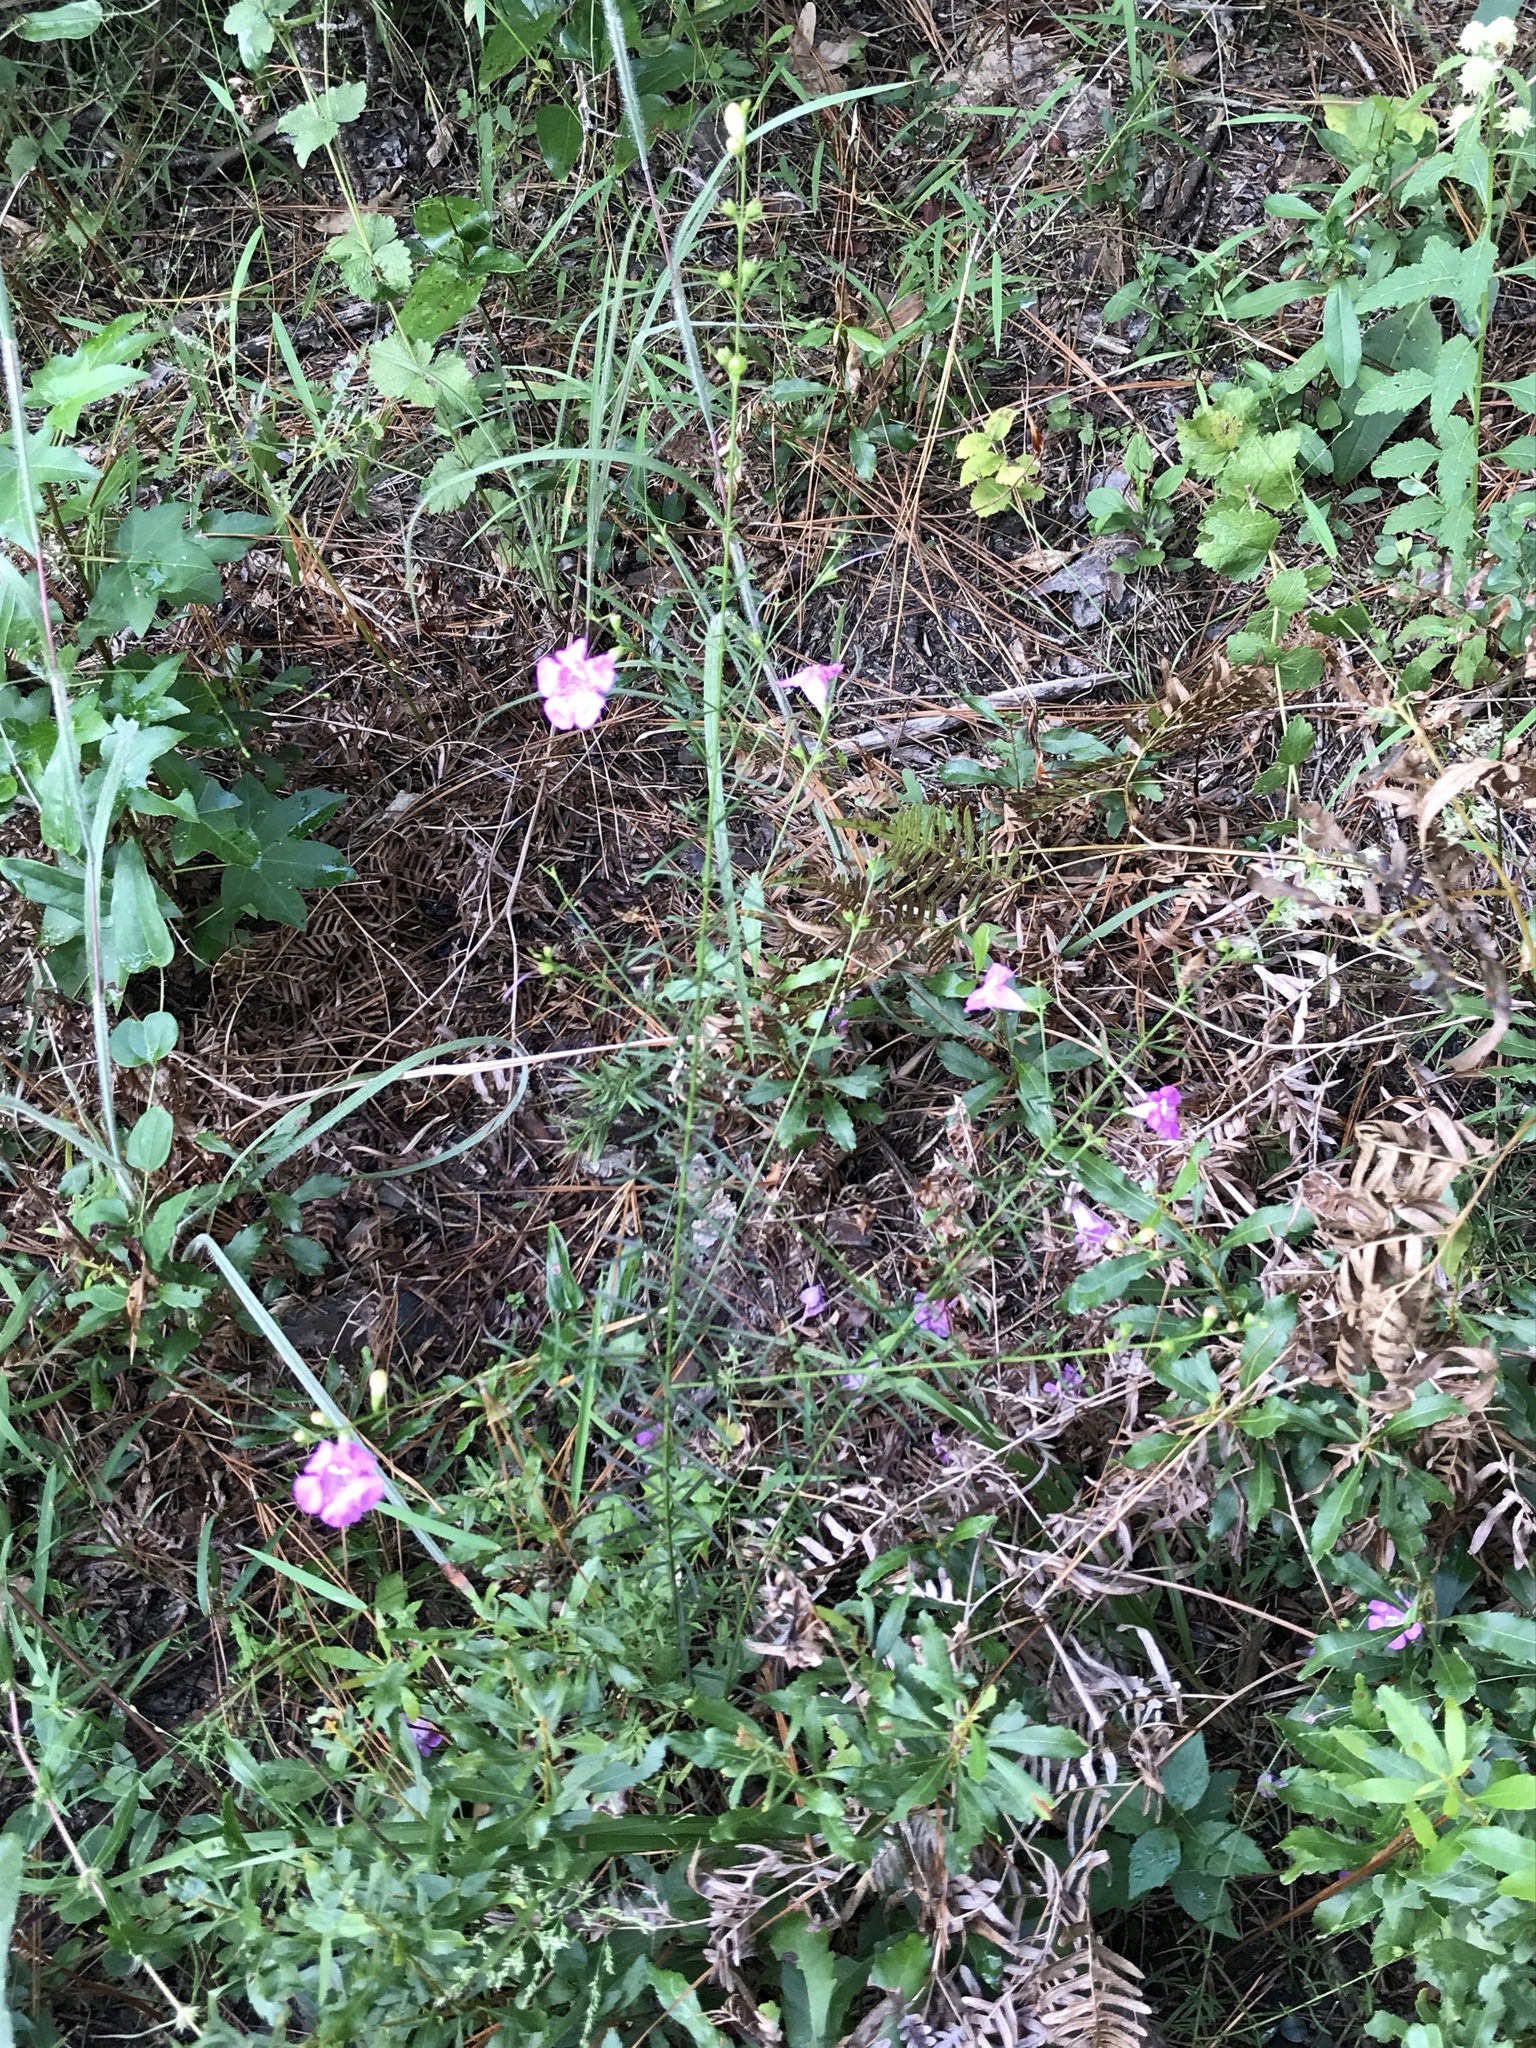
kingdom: Plantae
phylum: Tracheophyta
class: Magnoliopsida
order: Lamiales
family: Orobanchaceae
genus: Agalinis
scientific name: Agalinis fasciculata
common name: Beach false foxglove
